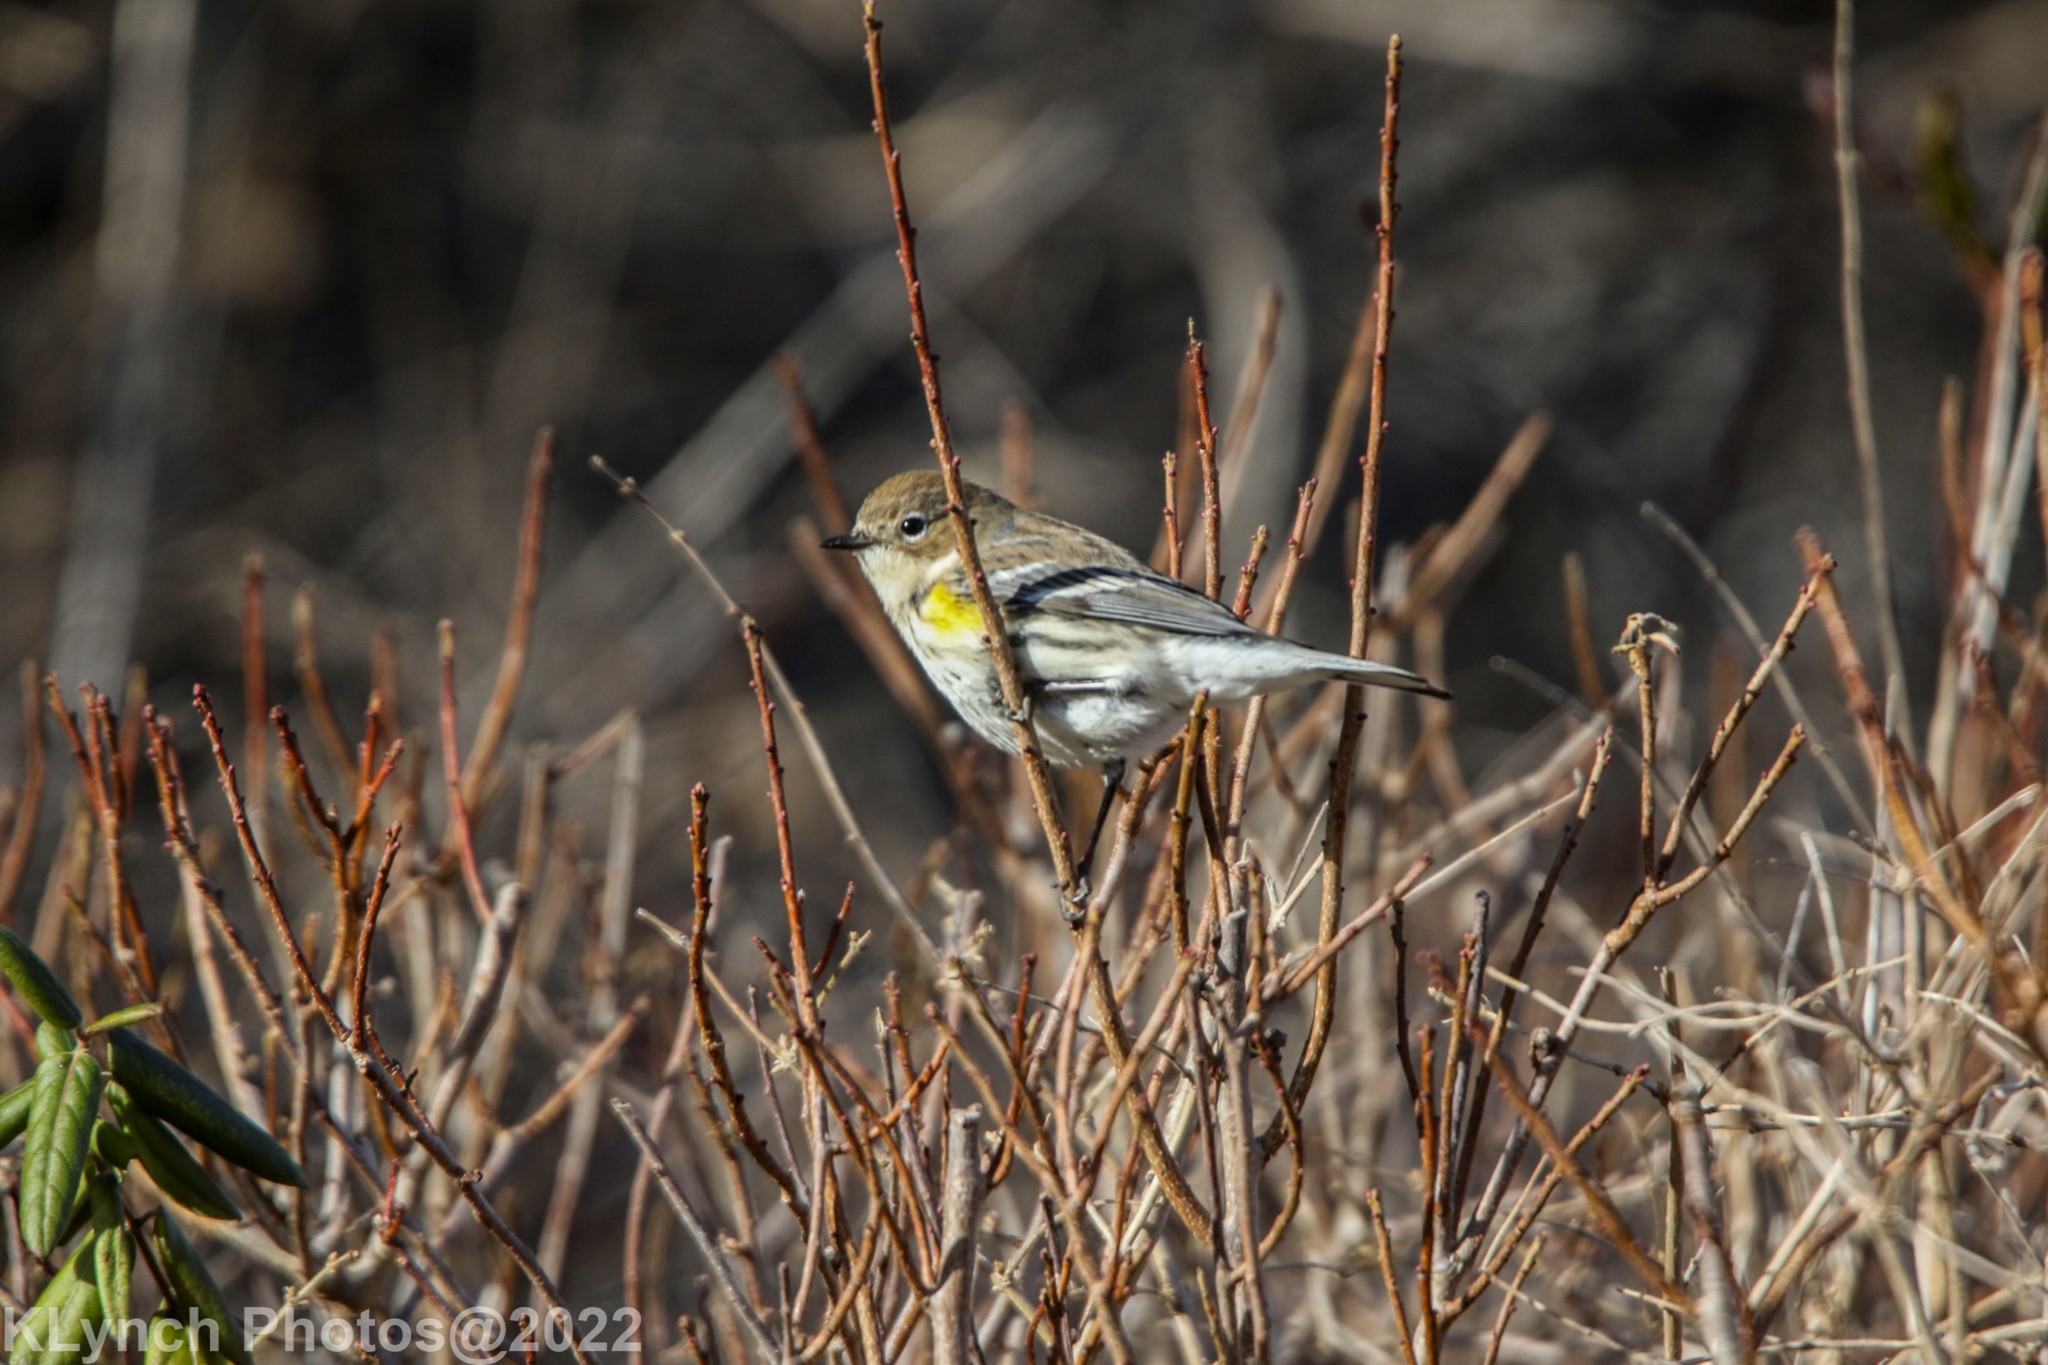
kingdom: Animalia
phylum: Chordata
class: Aves
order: Passeriformes
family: Parulidae
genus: Setophaga
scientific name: Setophaga coronata
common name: Myrtle warbler
